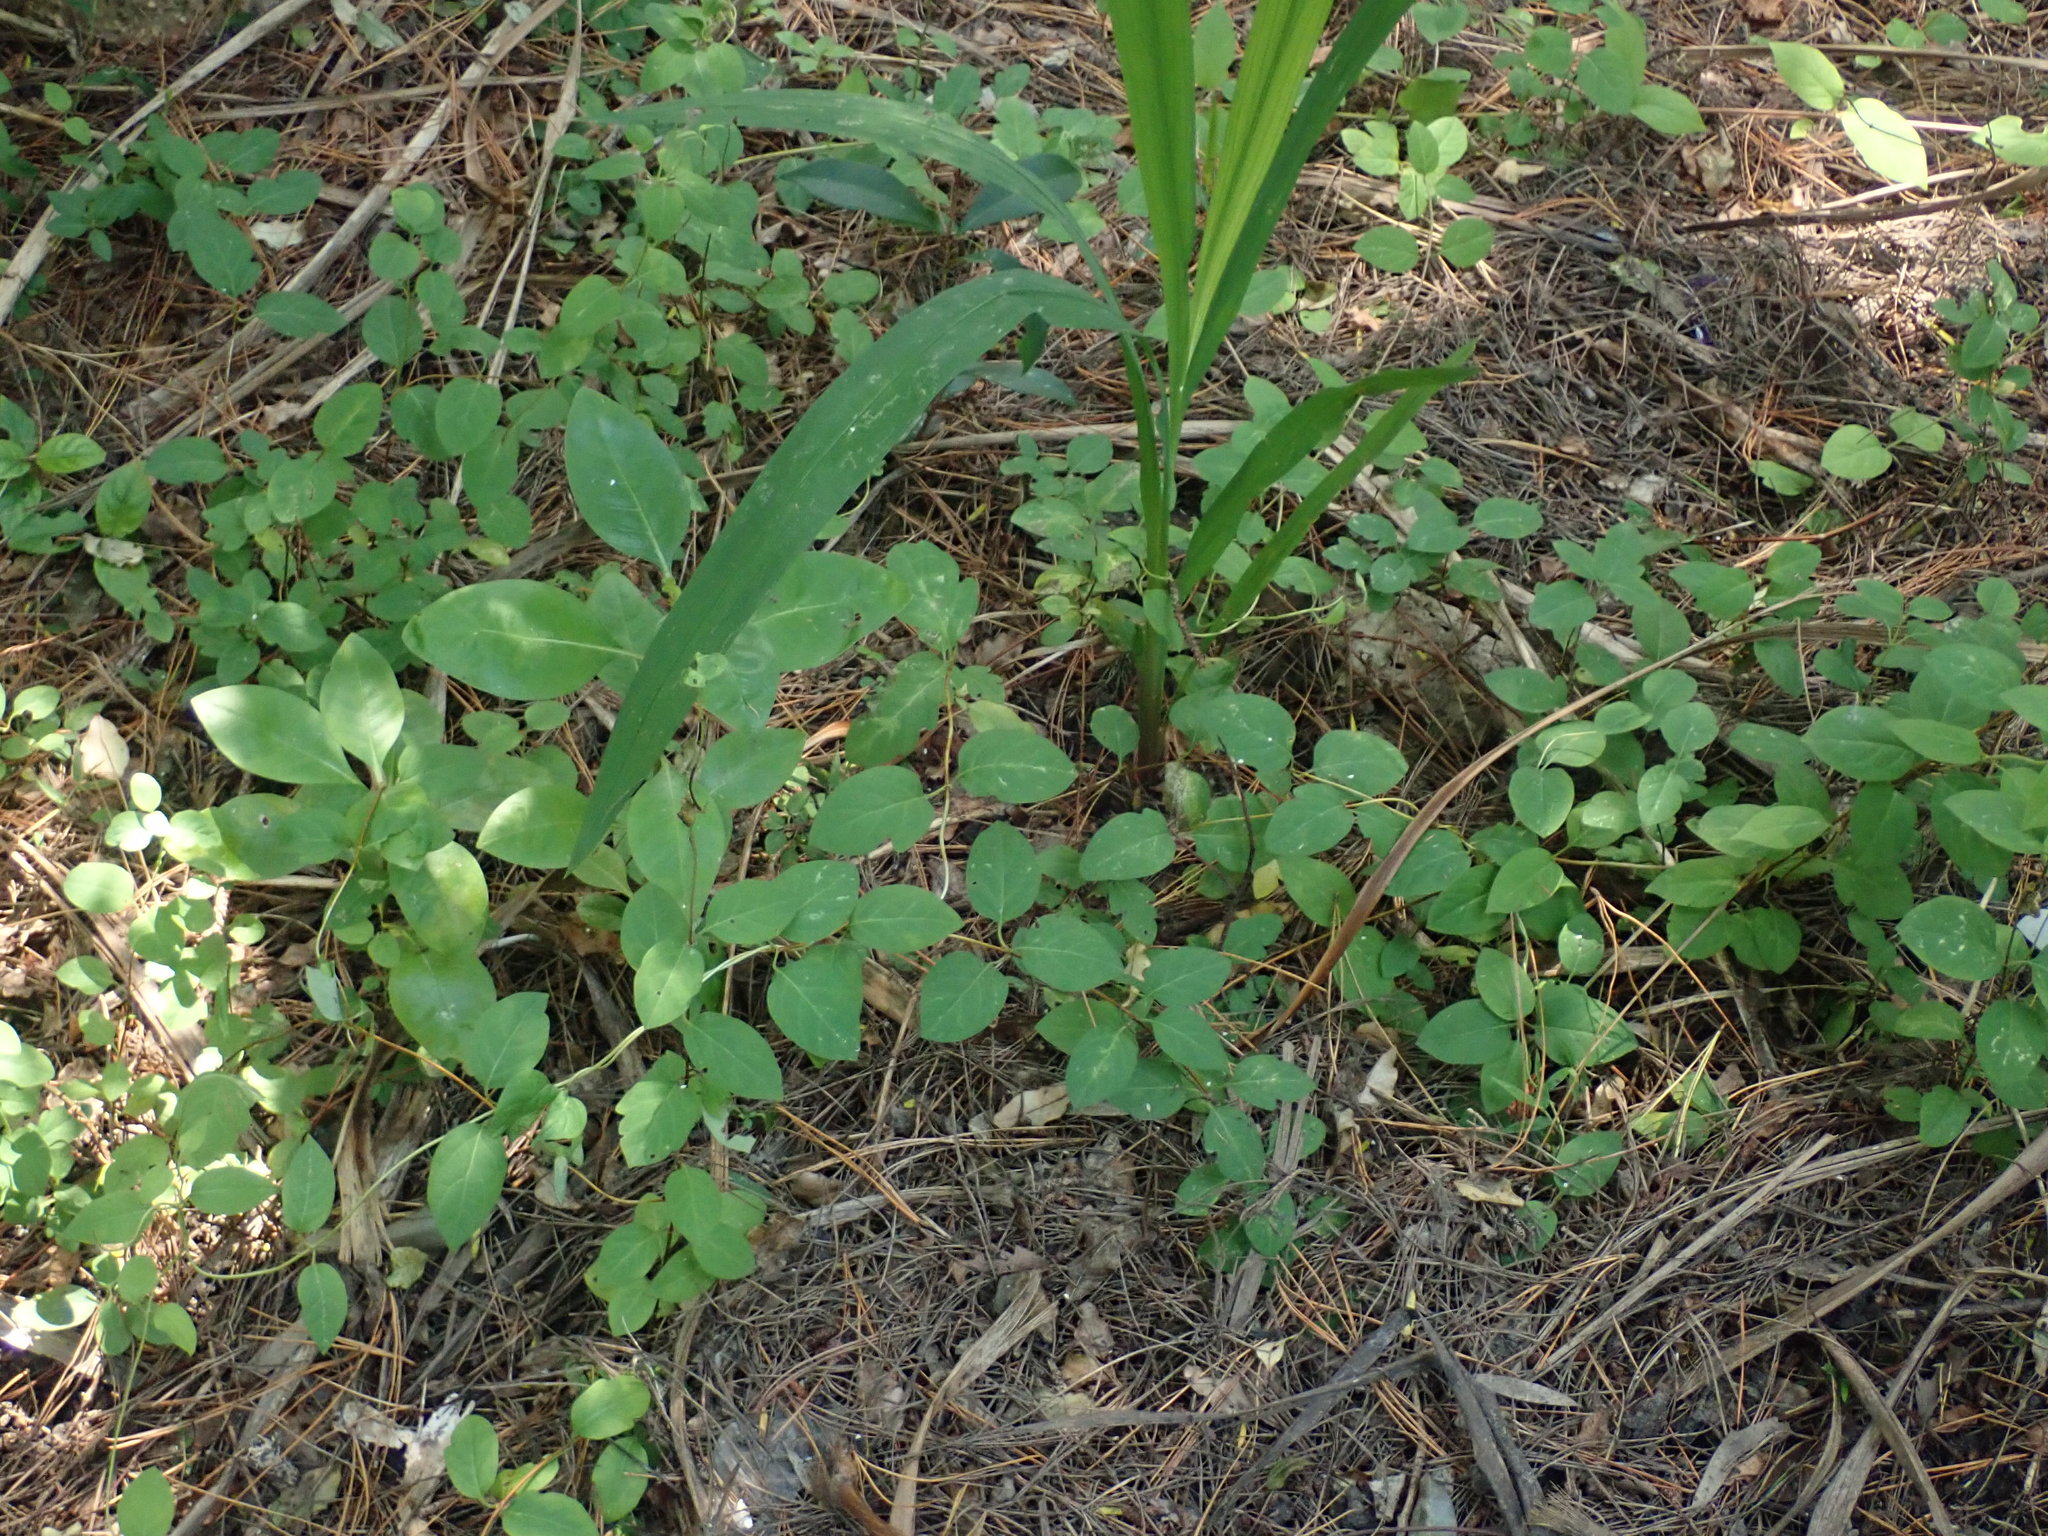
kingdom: Plantae
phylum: Tracheophyta
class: Magnoliopsida
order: Dipsacales
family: Caprifoliaceae
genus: Lonicera
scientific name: Lonicera japonica
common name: Japanese honeysuckle
